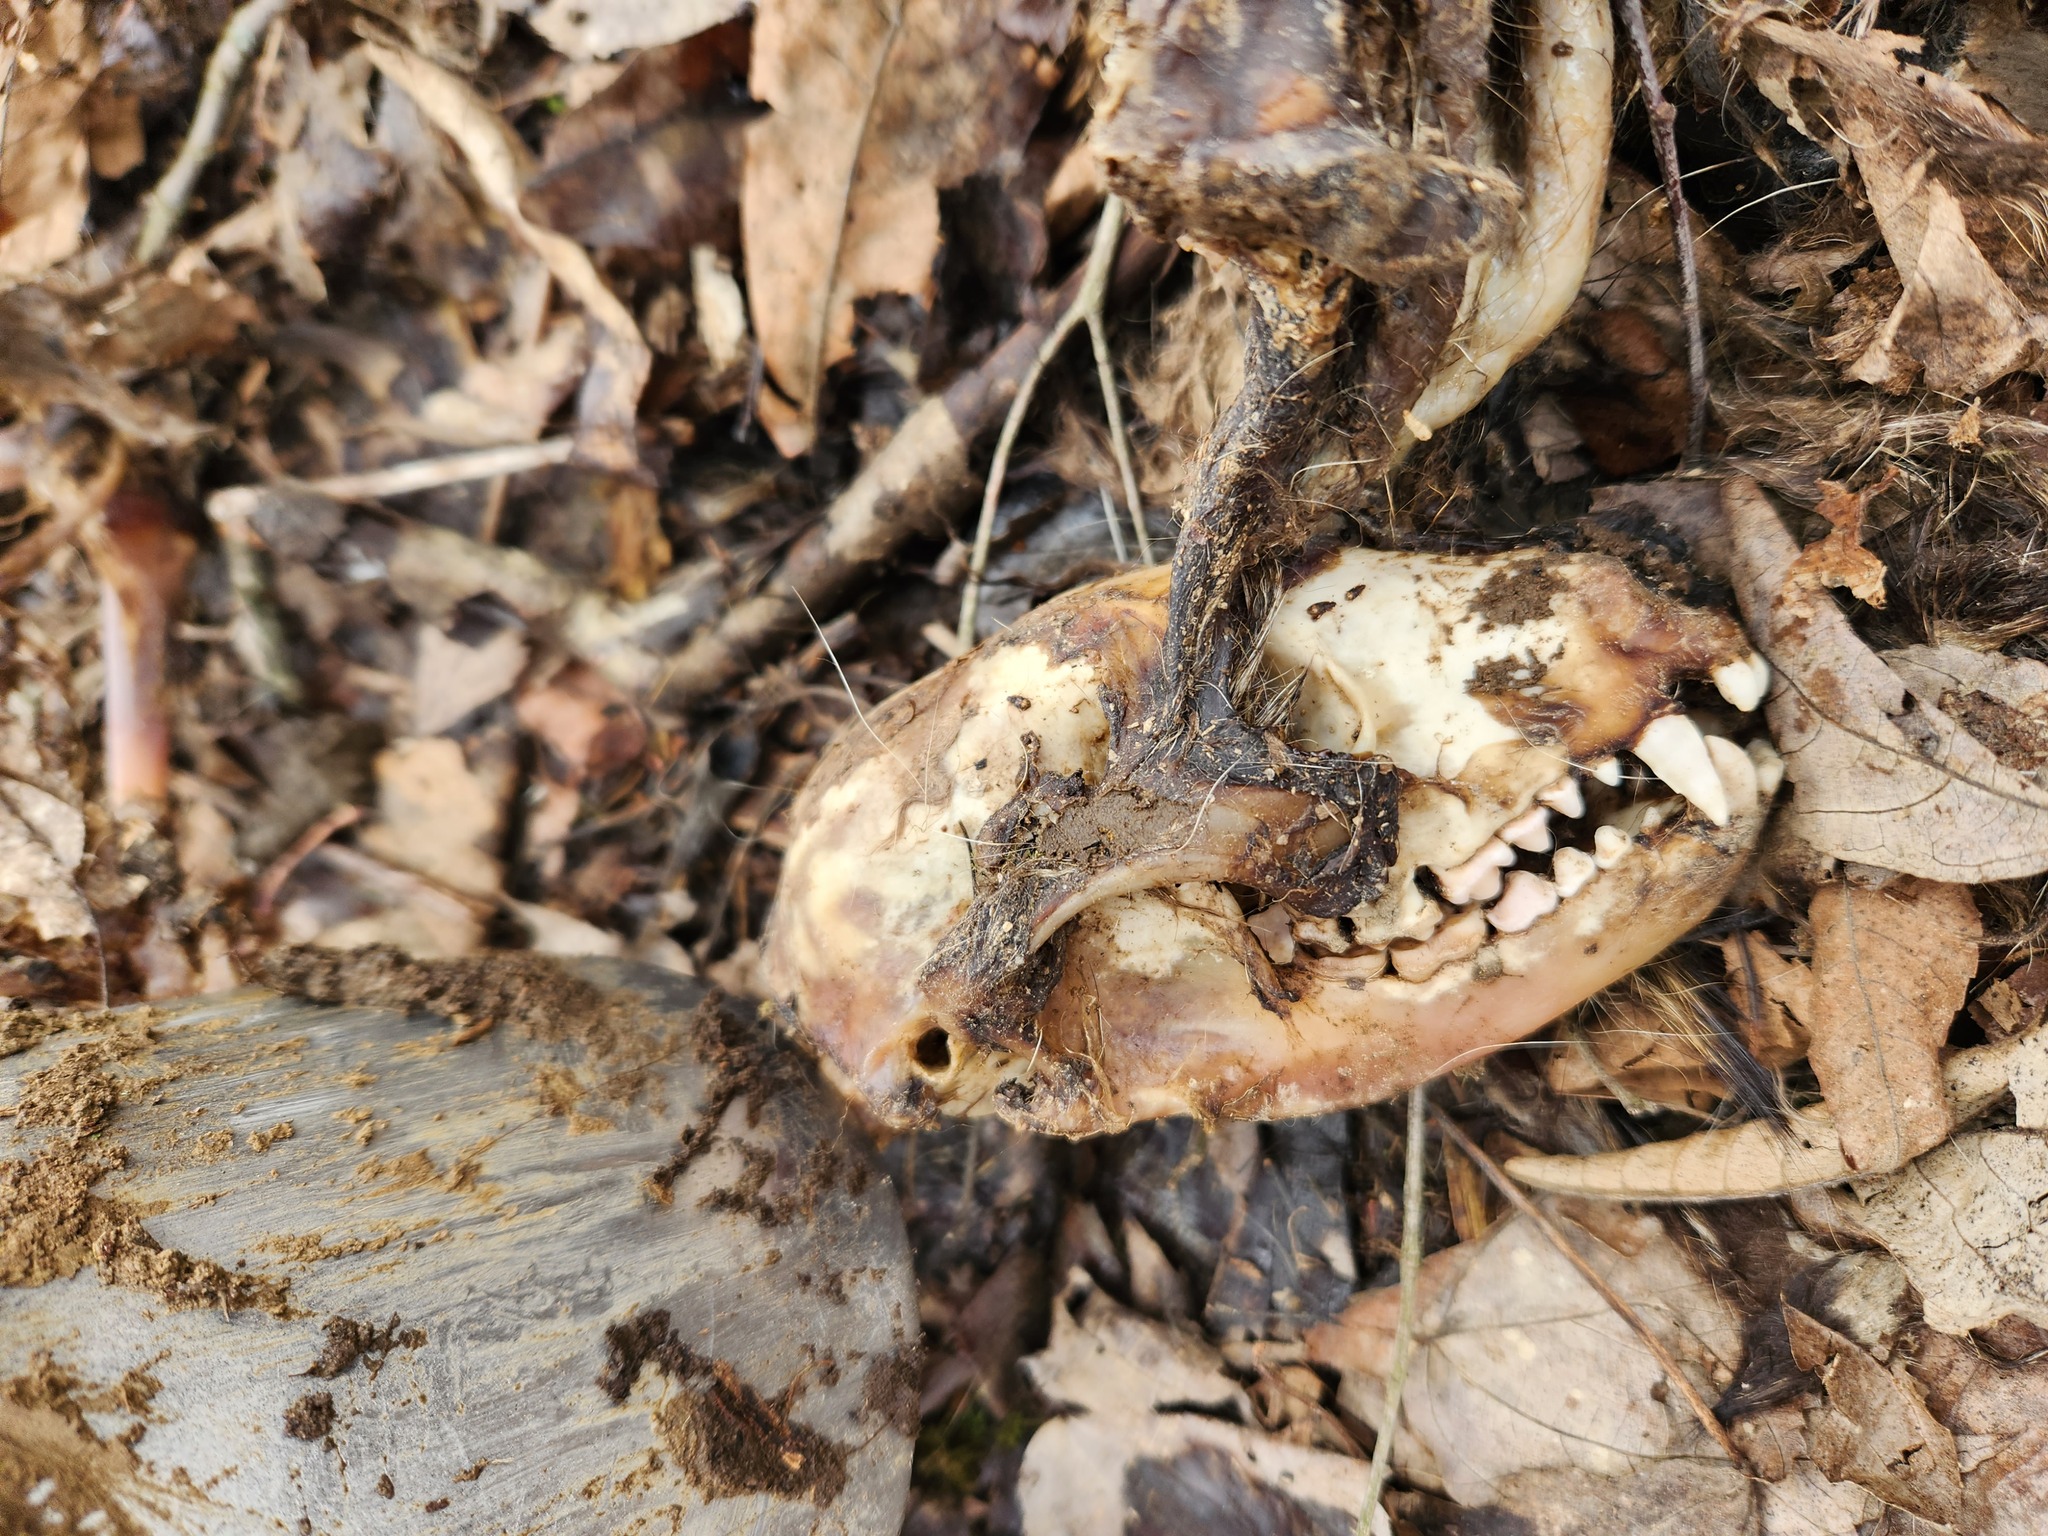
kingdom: Animalia
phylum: Chordata
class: Mammalia
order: Carnivora
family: Procyonidae
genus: Procyon
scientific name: Procyon lotor
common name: Raccoon
